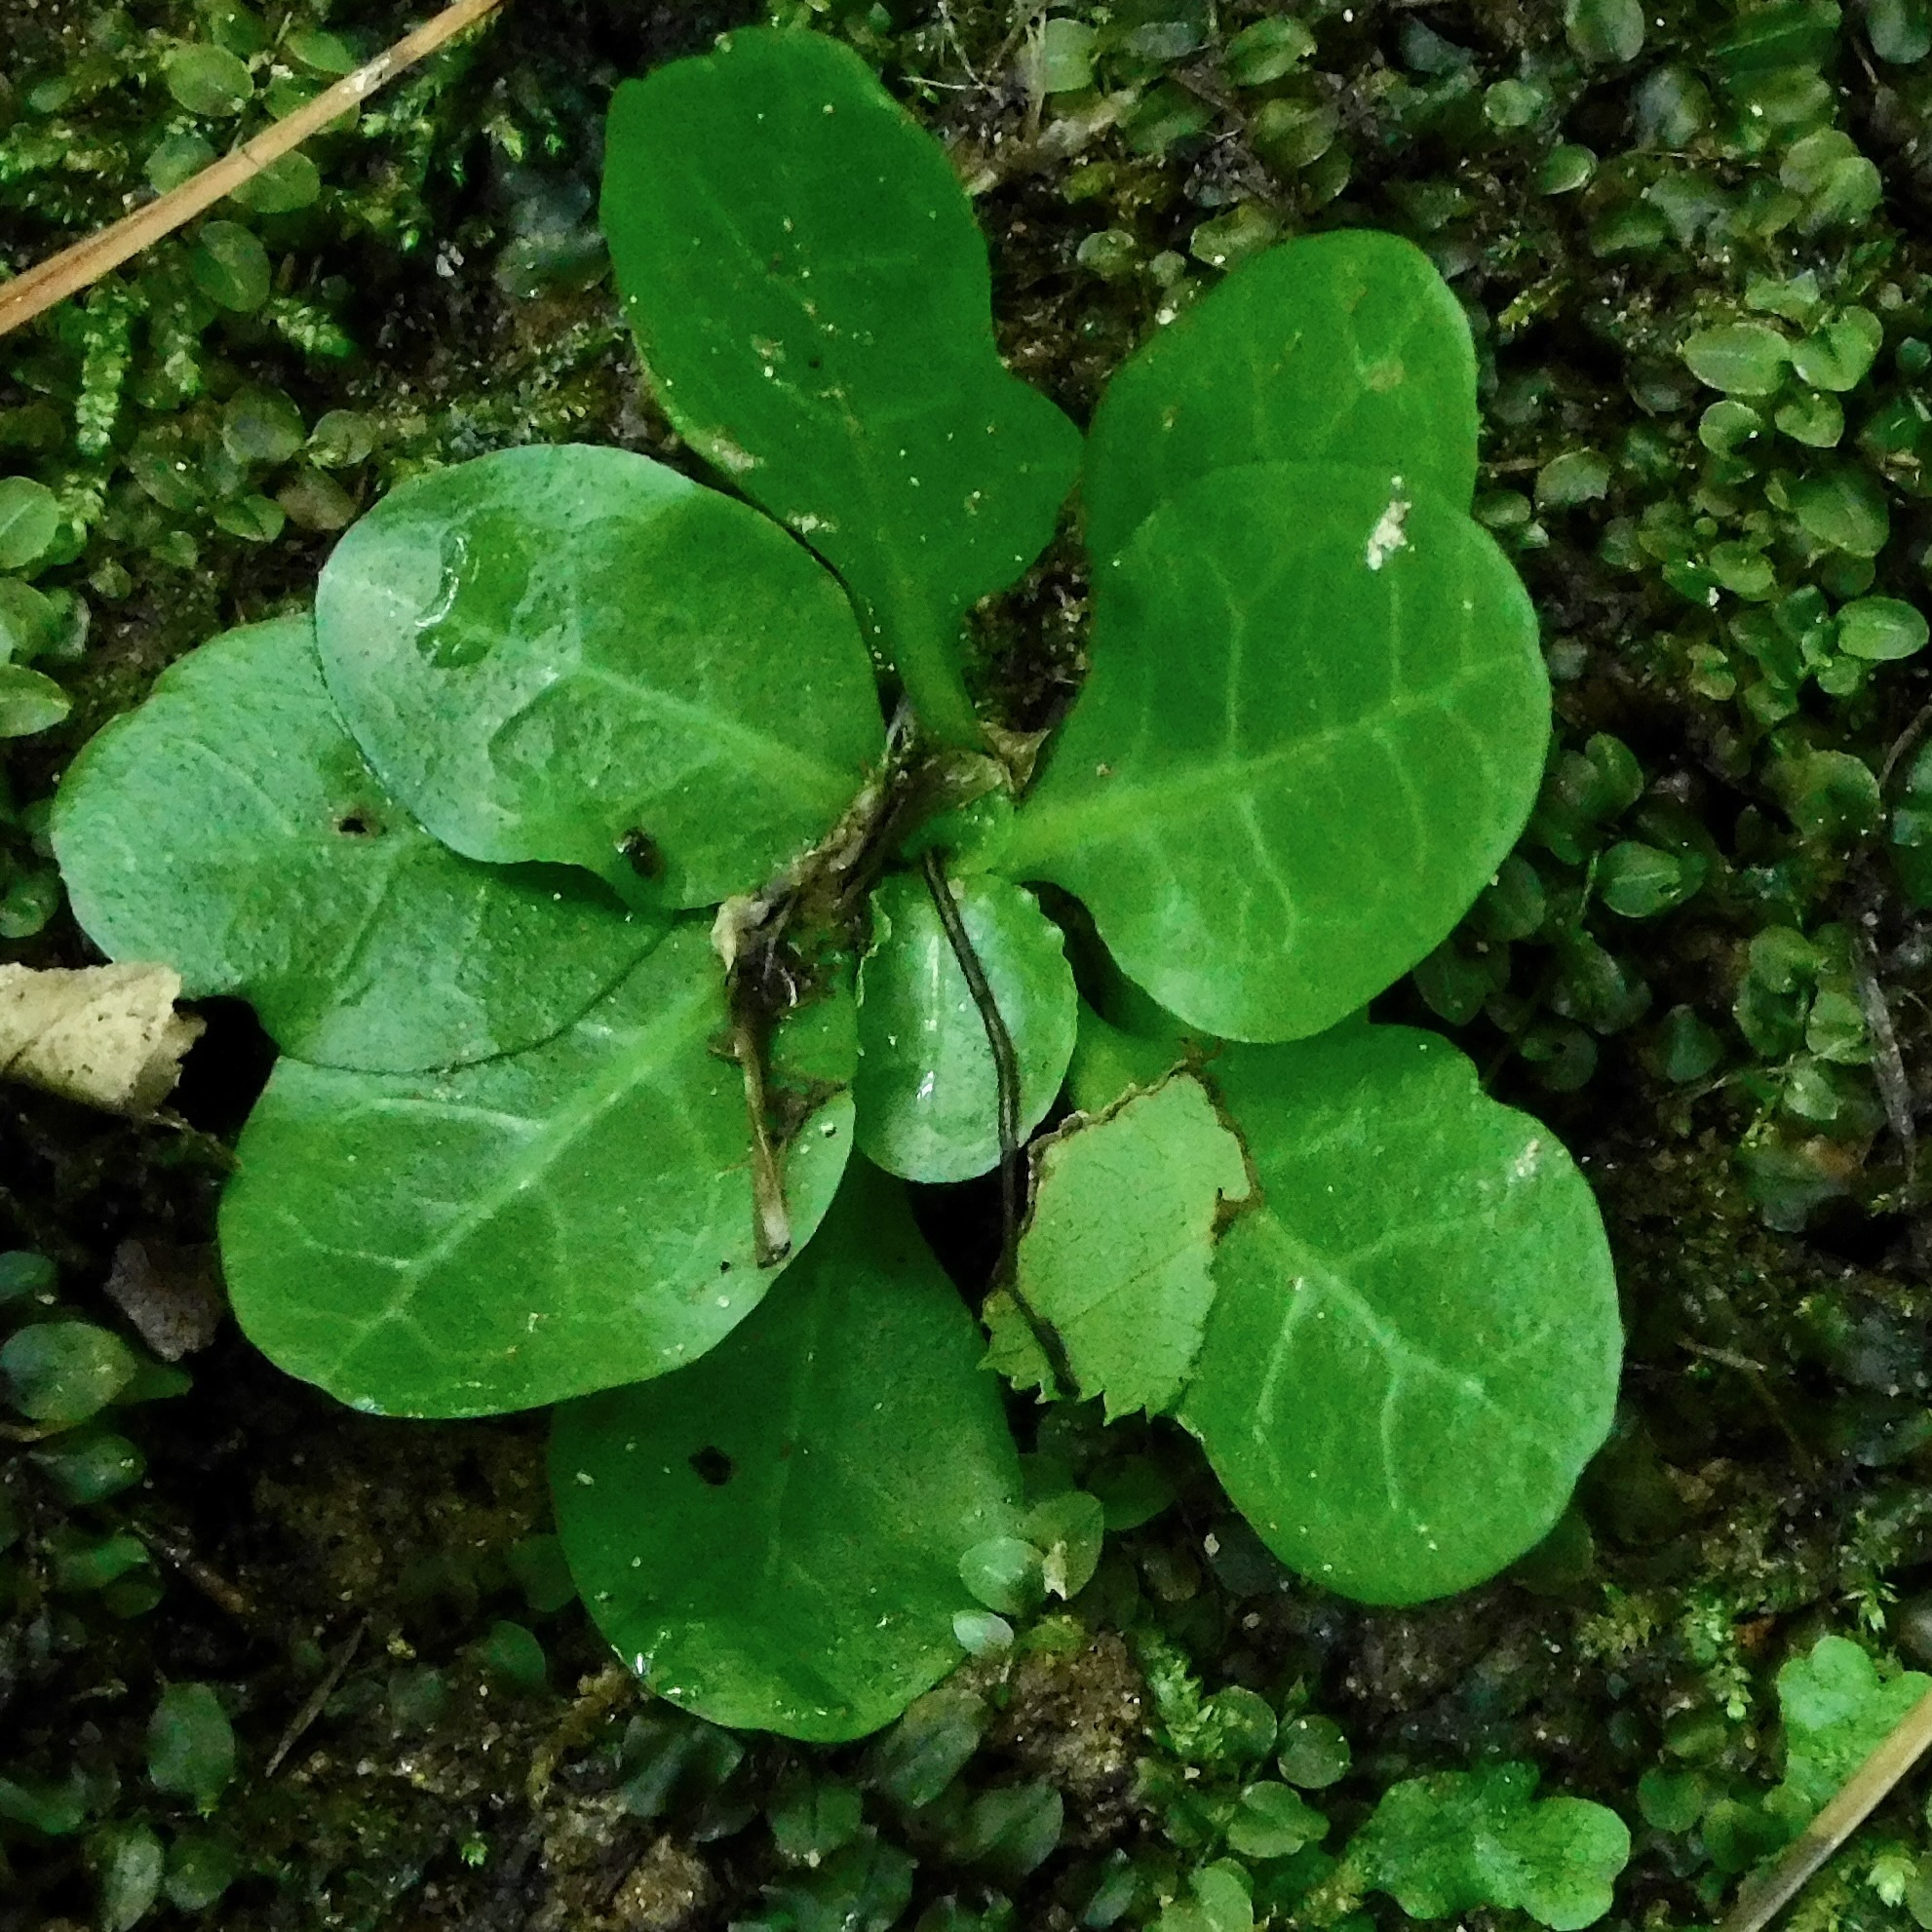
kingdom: Plantae
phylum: Tracheophyta
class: Magnoliopsida
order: Ericales
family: Primulaceae
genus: Samolus
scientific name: Samolus parviflorus
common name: False water pimpernel
